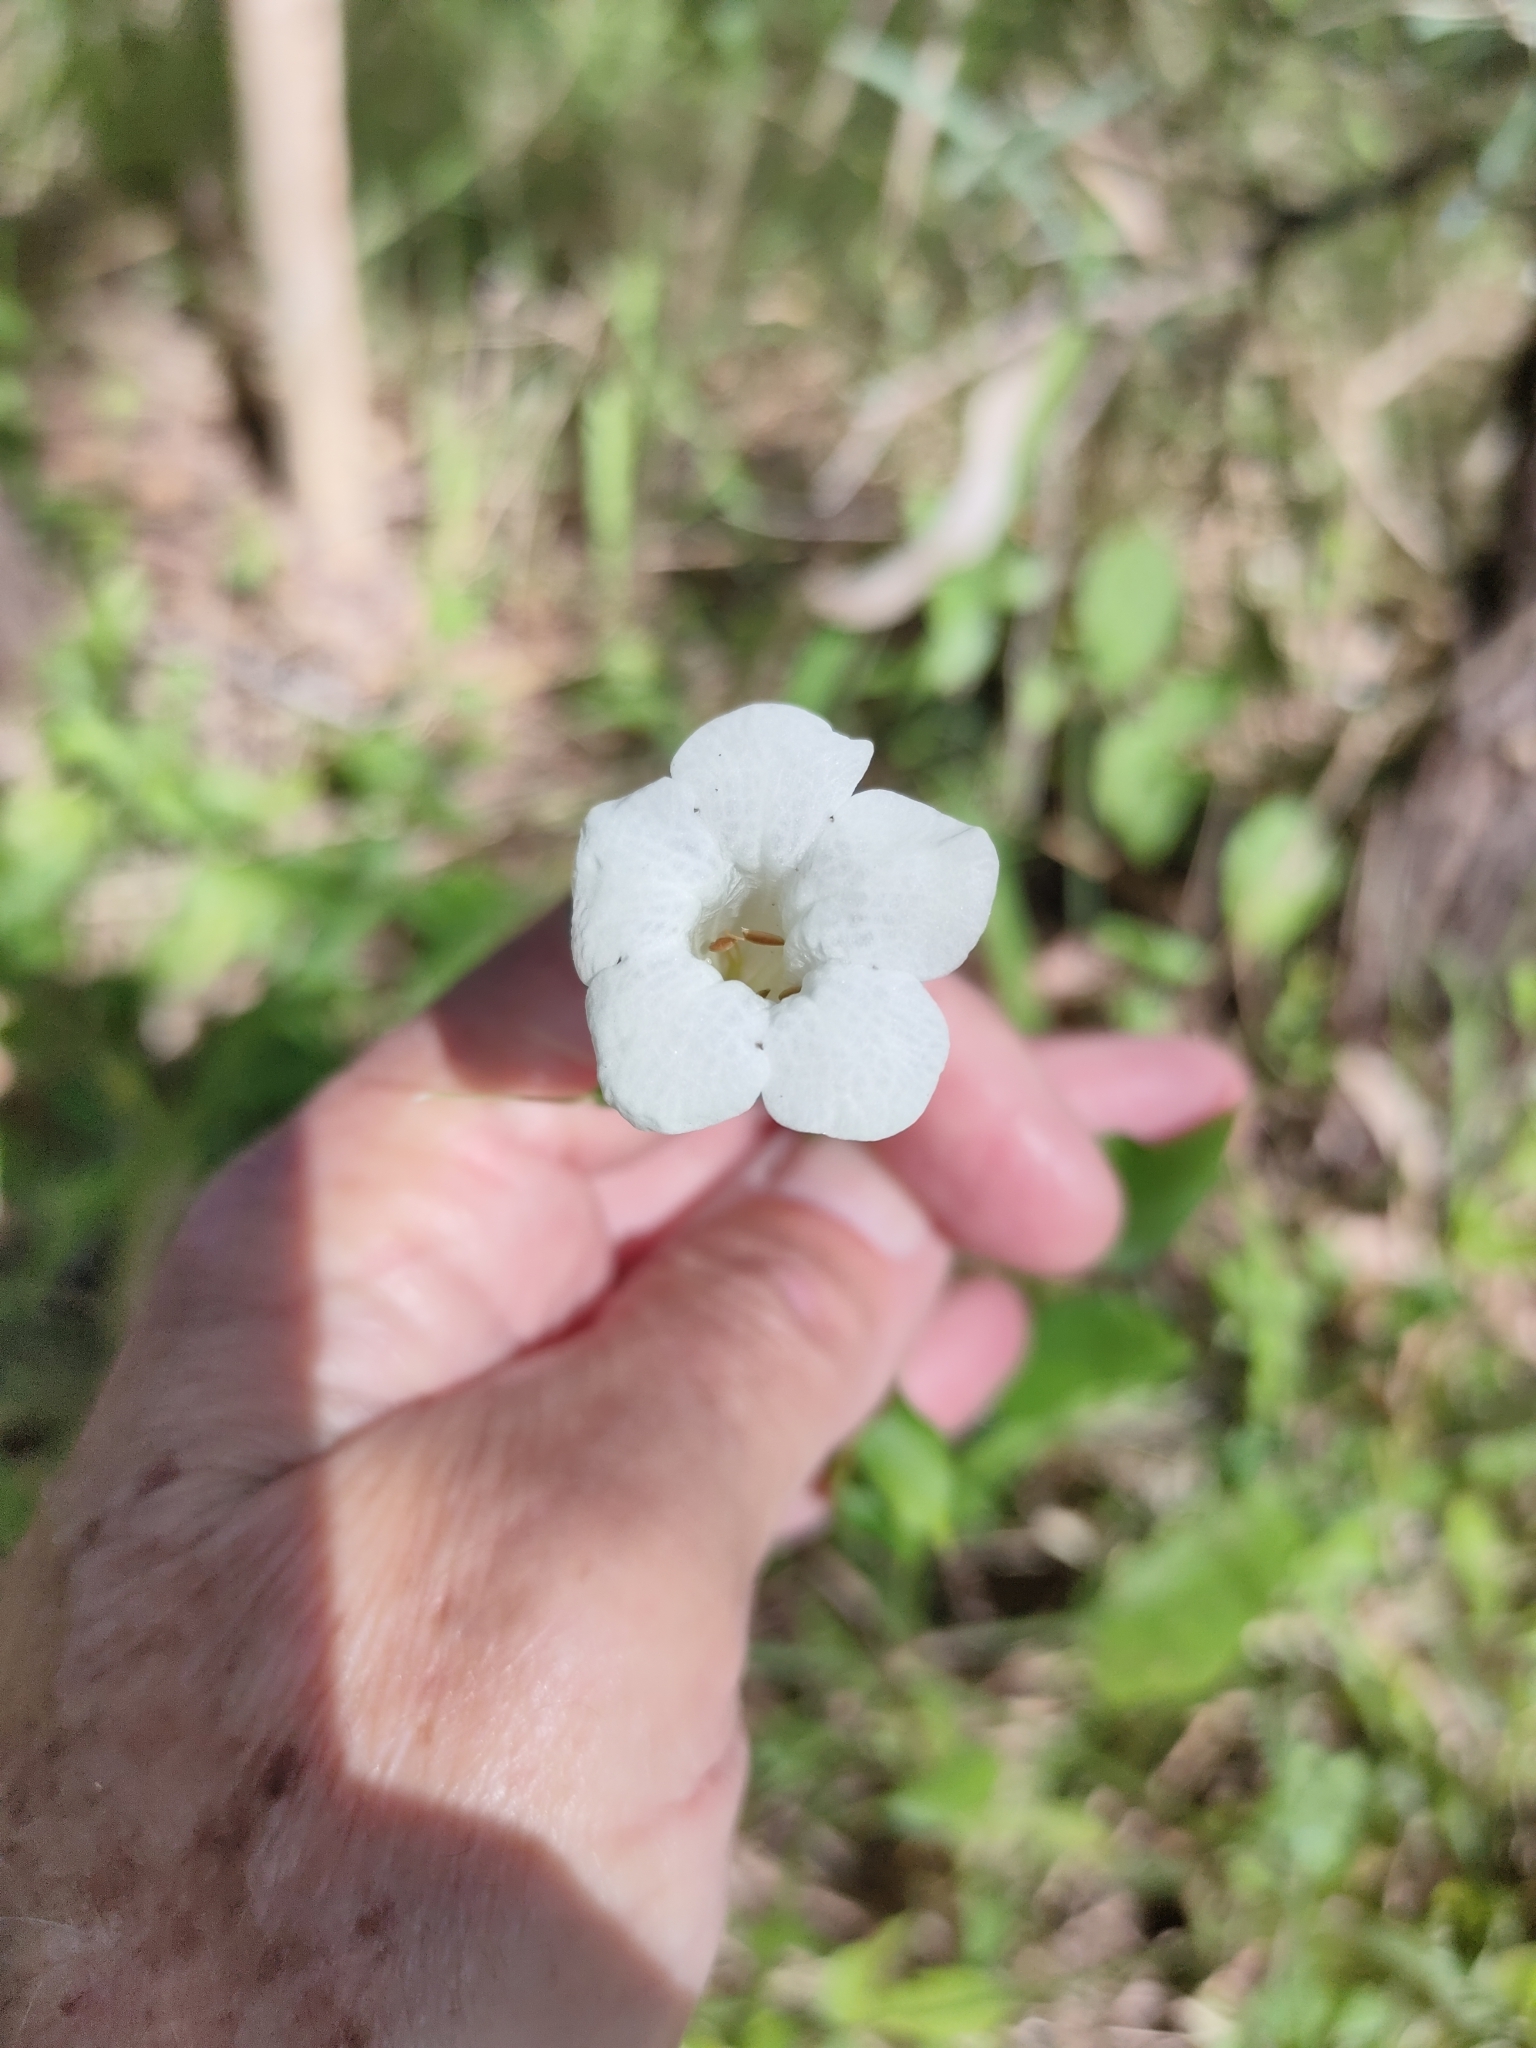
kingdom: Plantae
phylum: Tracheophyta
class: Magnoliopsida
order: Lamiales
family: Acanthaceae
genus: Asystasia
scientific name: Asystasia gangetica
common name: Chinese violet
